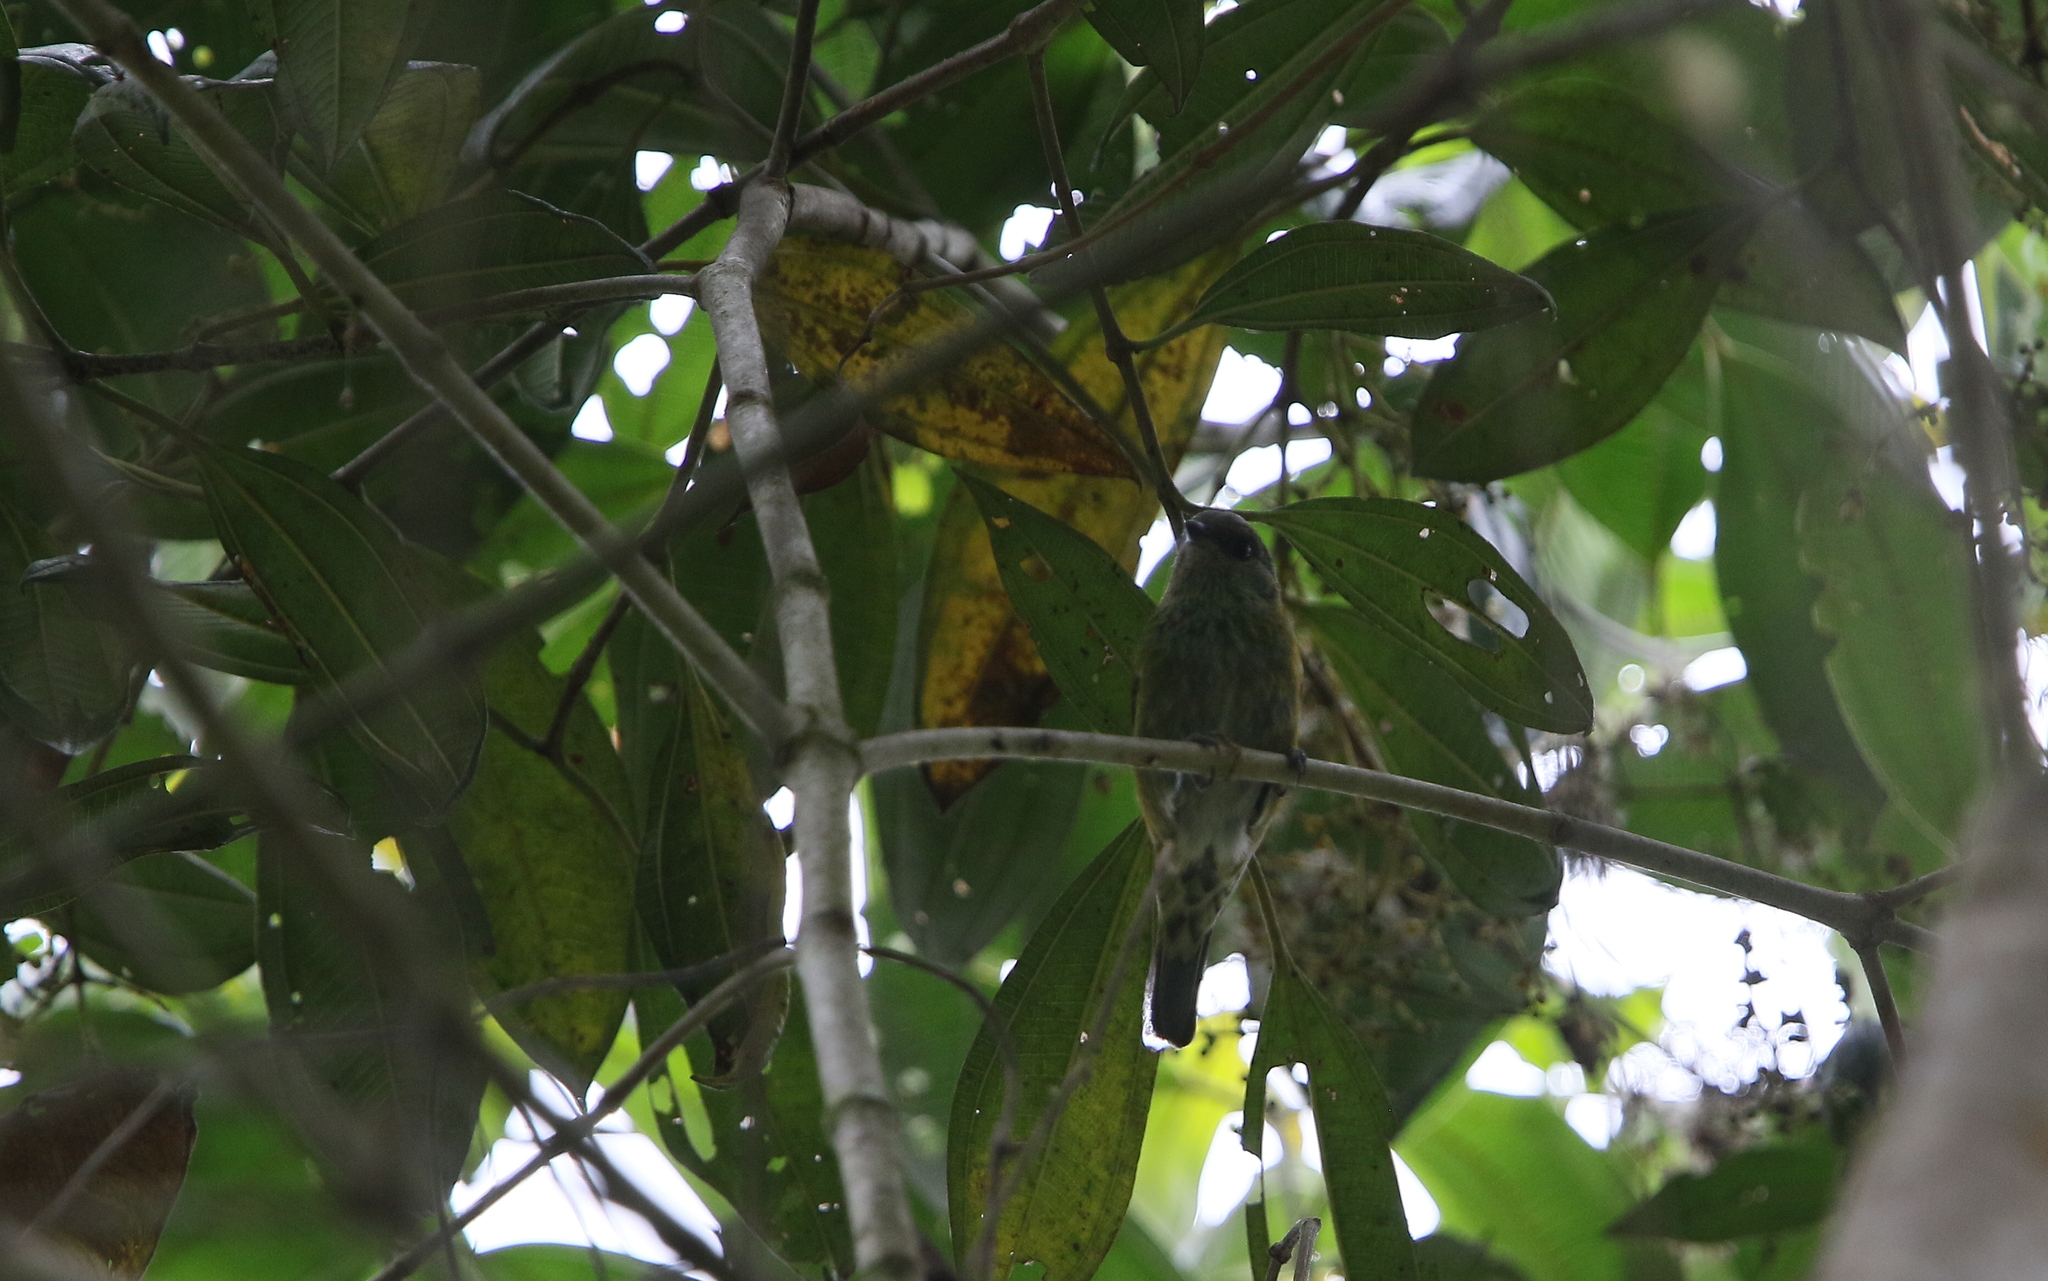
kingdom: Animalia
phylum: Chordata
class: Aves
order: Passeriformes
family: Thraupidae
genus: Stilpnia
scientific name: Stilpnia heinei
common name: Black-capped tanager
